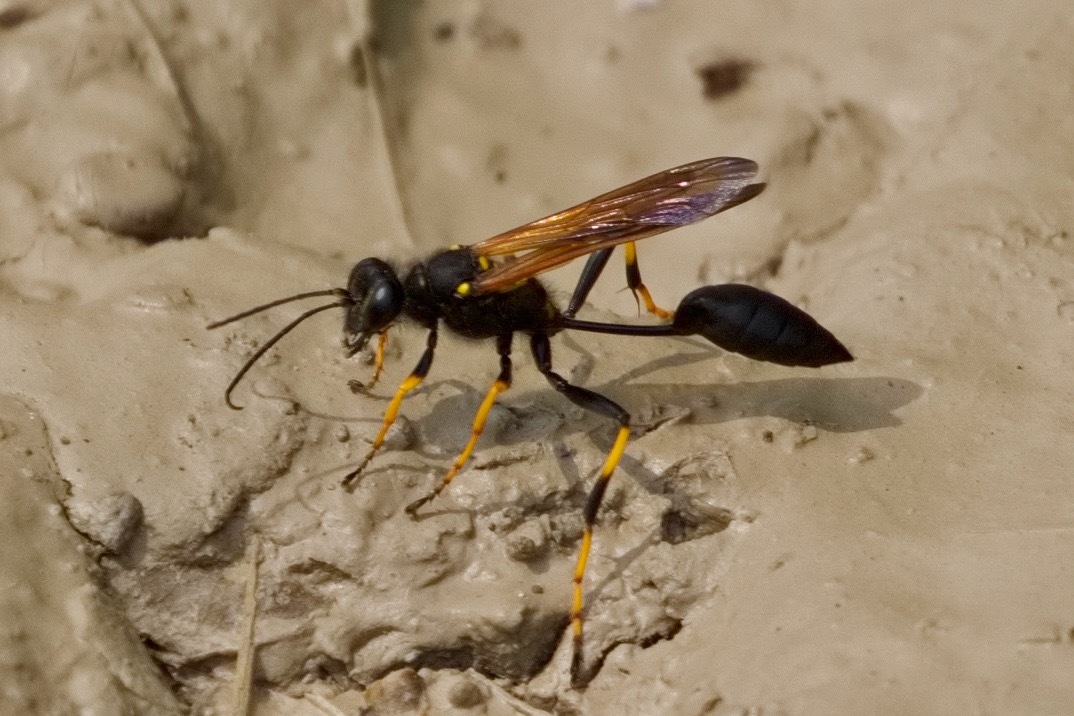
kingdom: Animalia
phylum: Arthropoda
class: Insecta
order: Hymenoptera
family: Sphecidae
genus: Sceliphron
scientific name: Sceliphron caementarium
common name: Mud dauber
